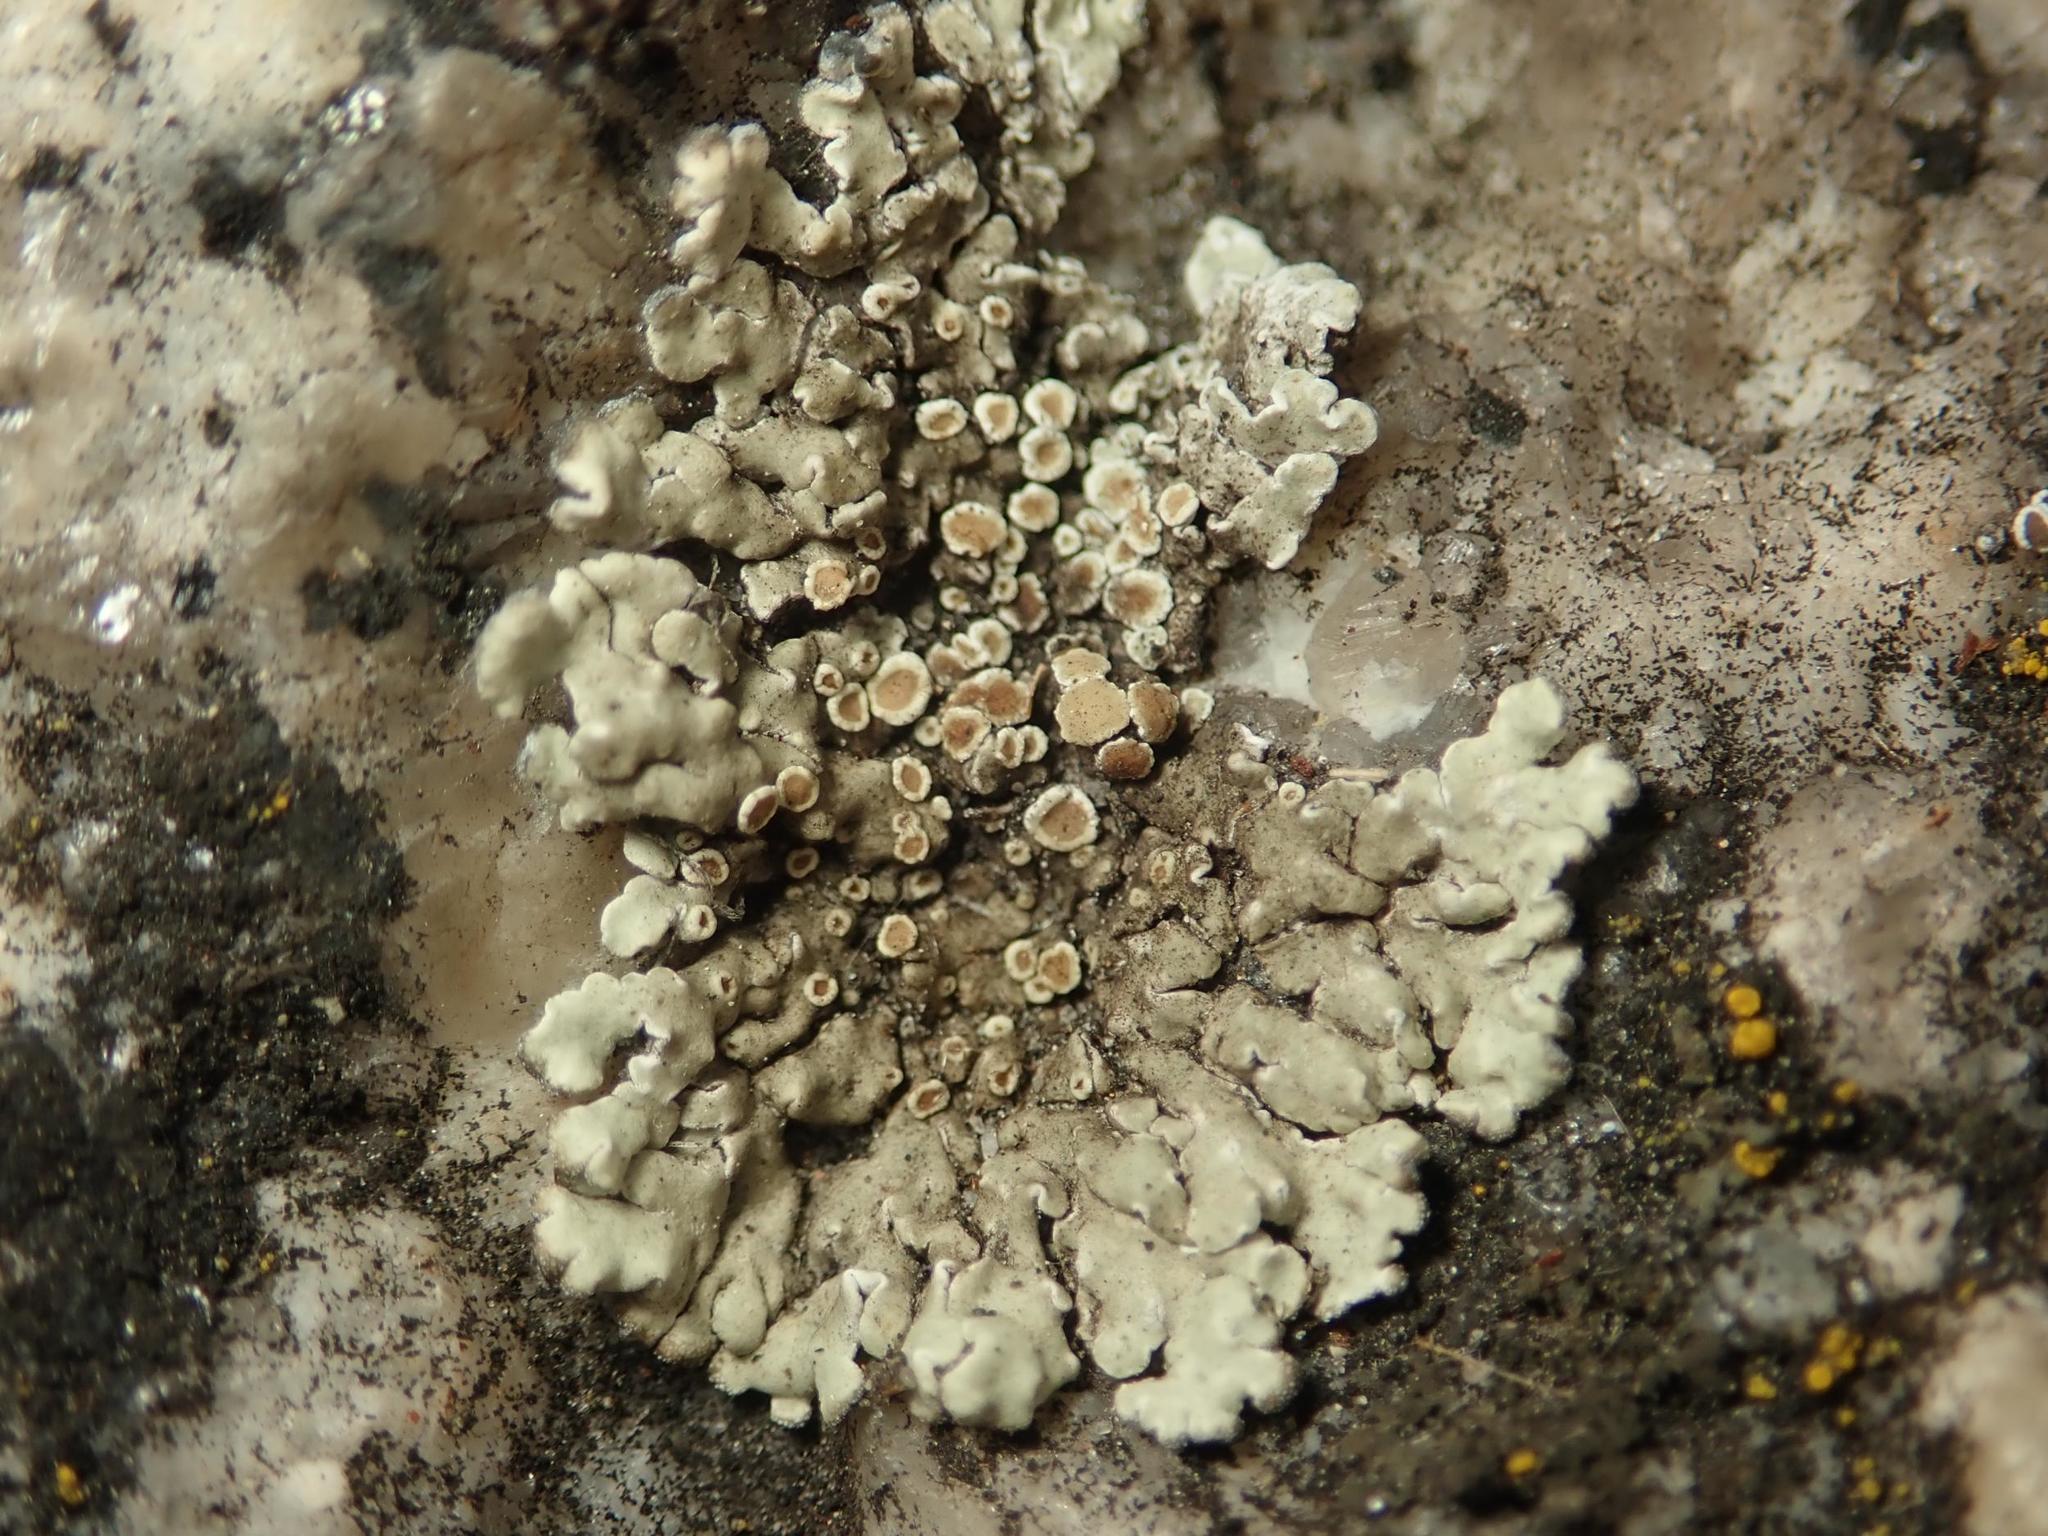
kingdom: Fungi
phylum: Ascomycota
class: Lecanoromycetes
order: Lecanorales
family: Lecanoraceae
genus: Protoparmeliopsis
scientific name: Protoparmeliopsis muralis
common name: Stonewall rim lichen
